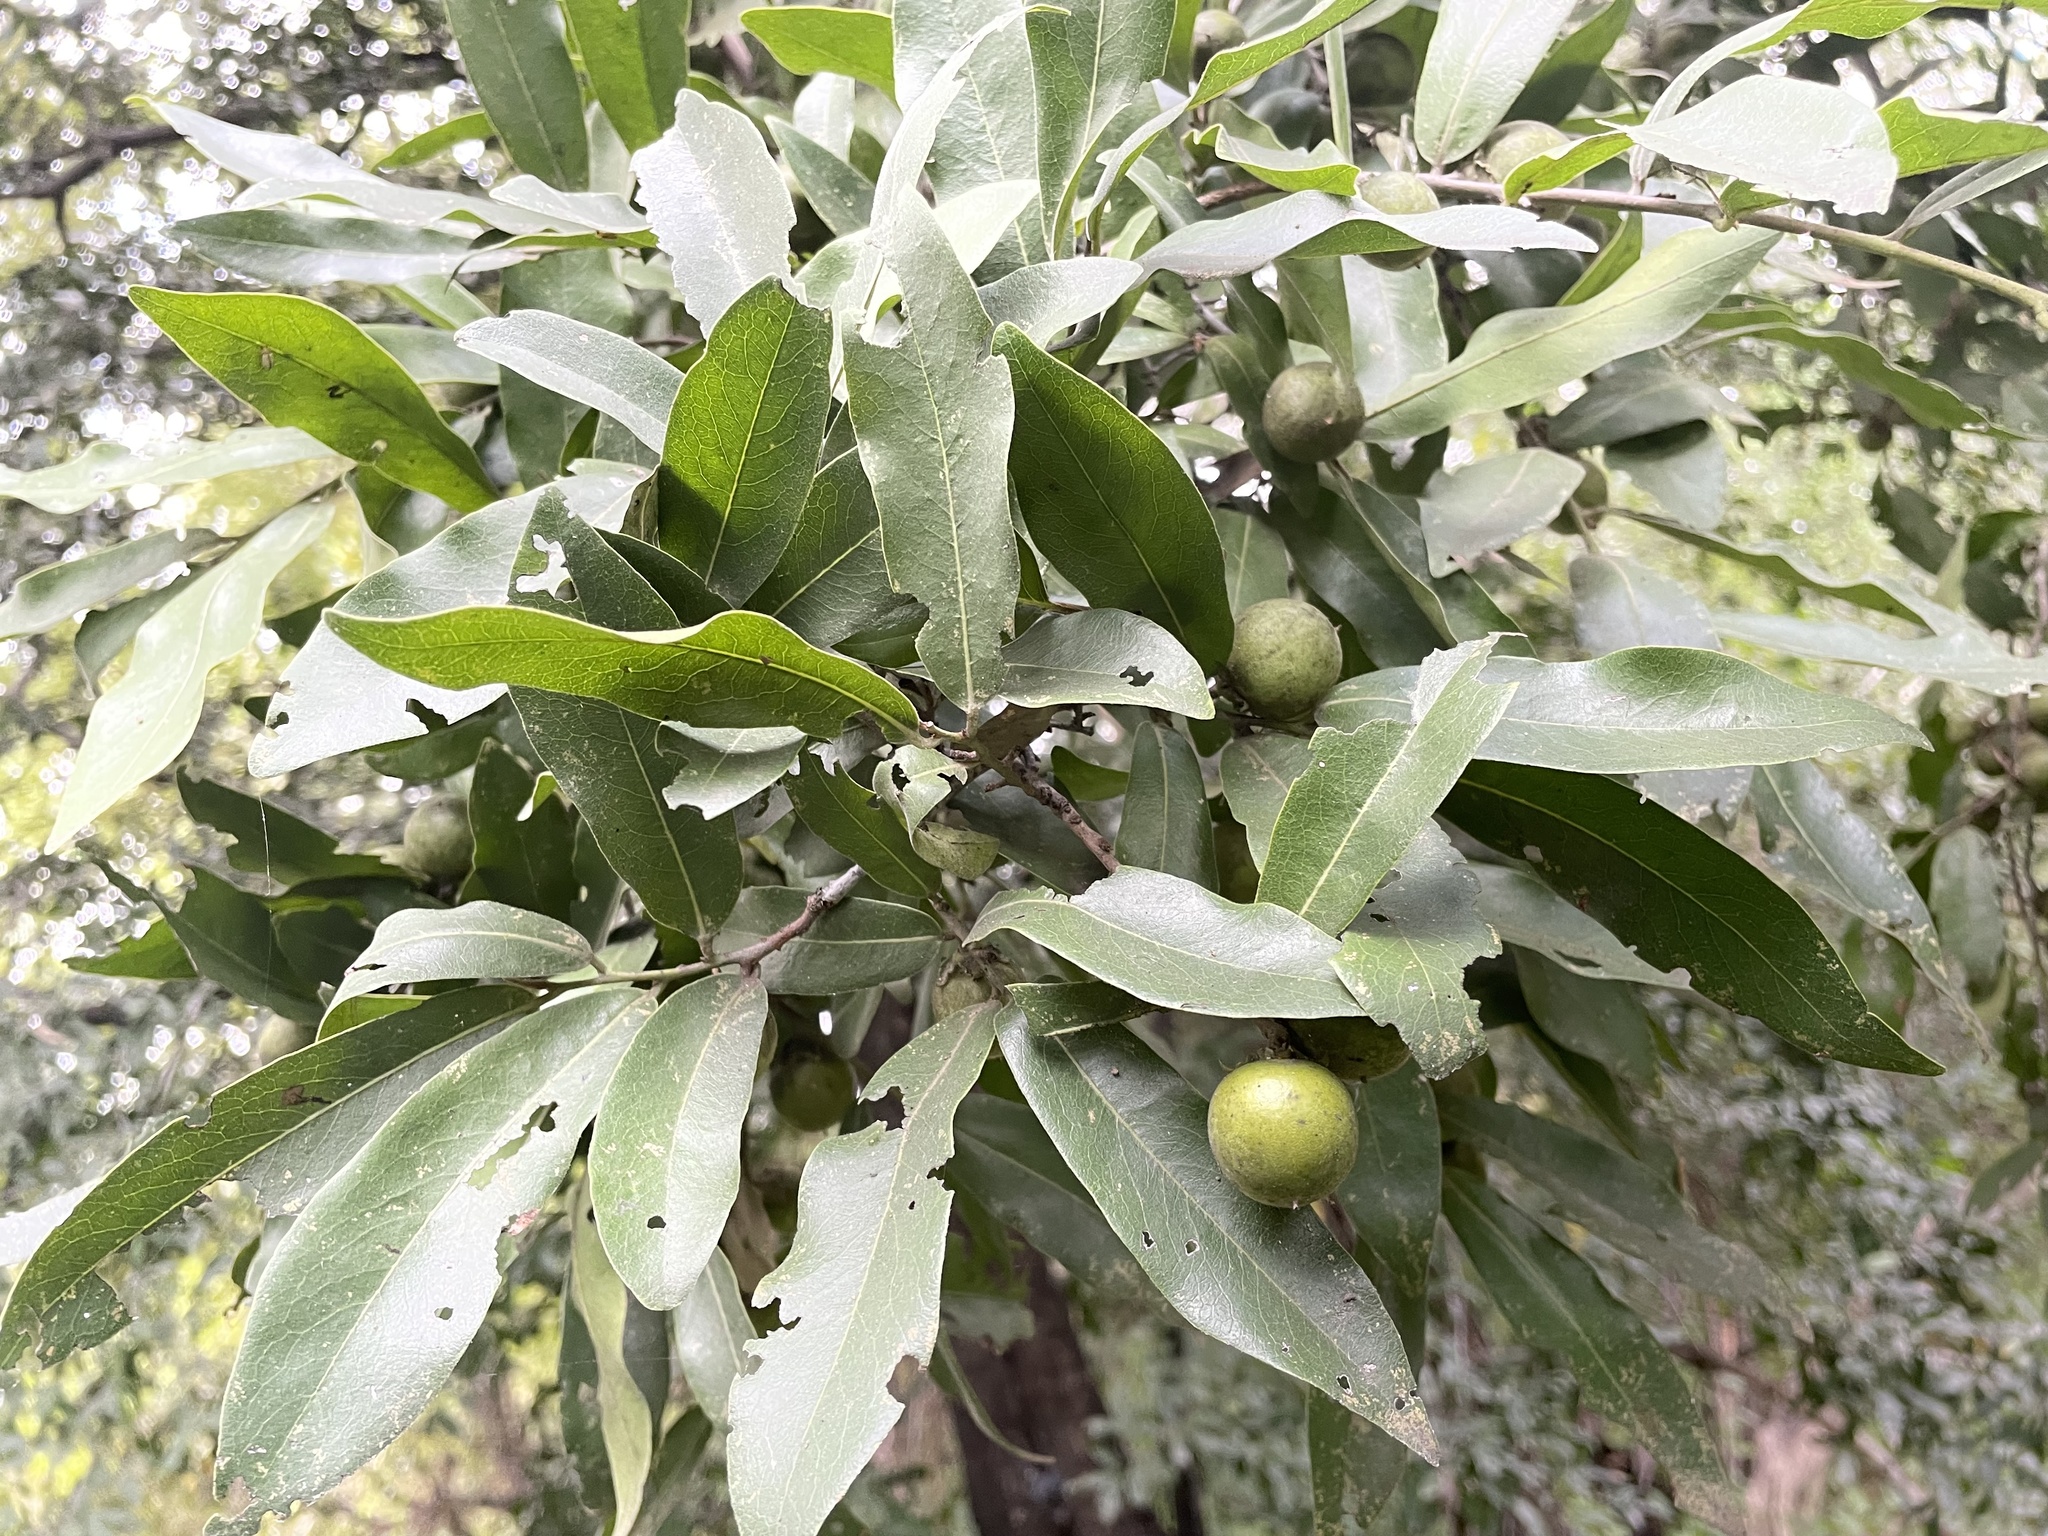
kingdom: Plantae
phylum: Tracheophyta
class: Magnoliopsida
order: Ericales
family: Ebenaceae
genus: Diospyros
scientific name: Diospyros mespiliformis
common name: Ebony diospyros
